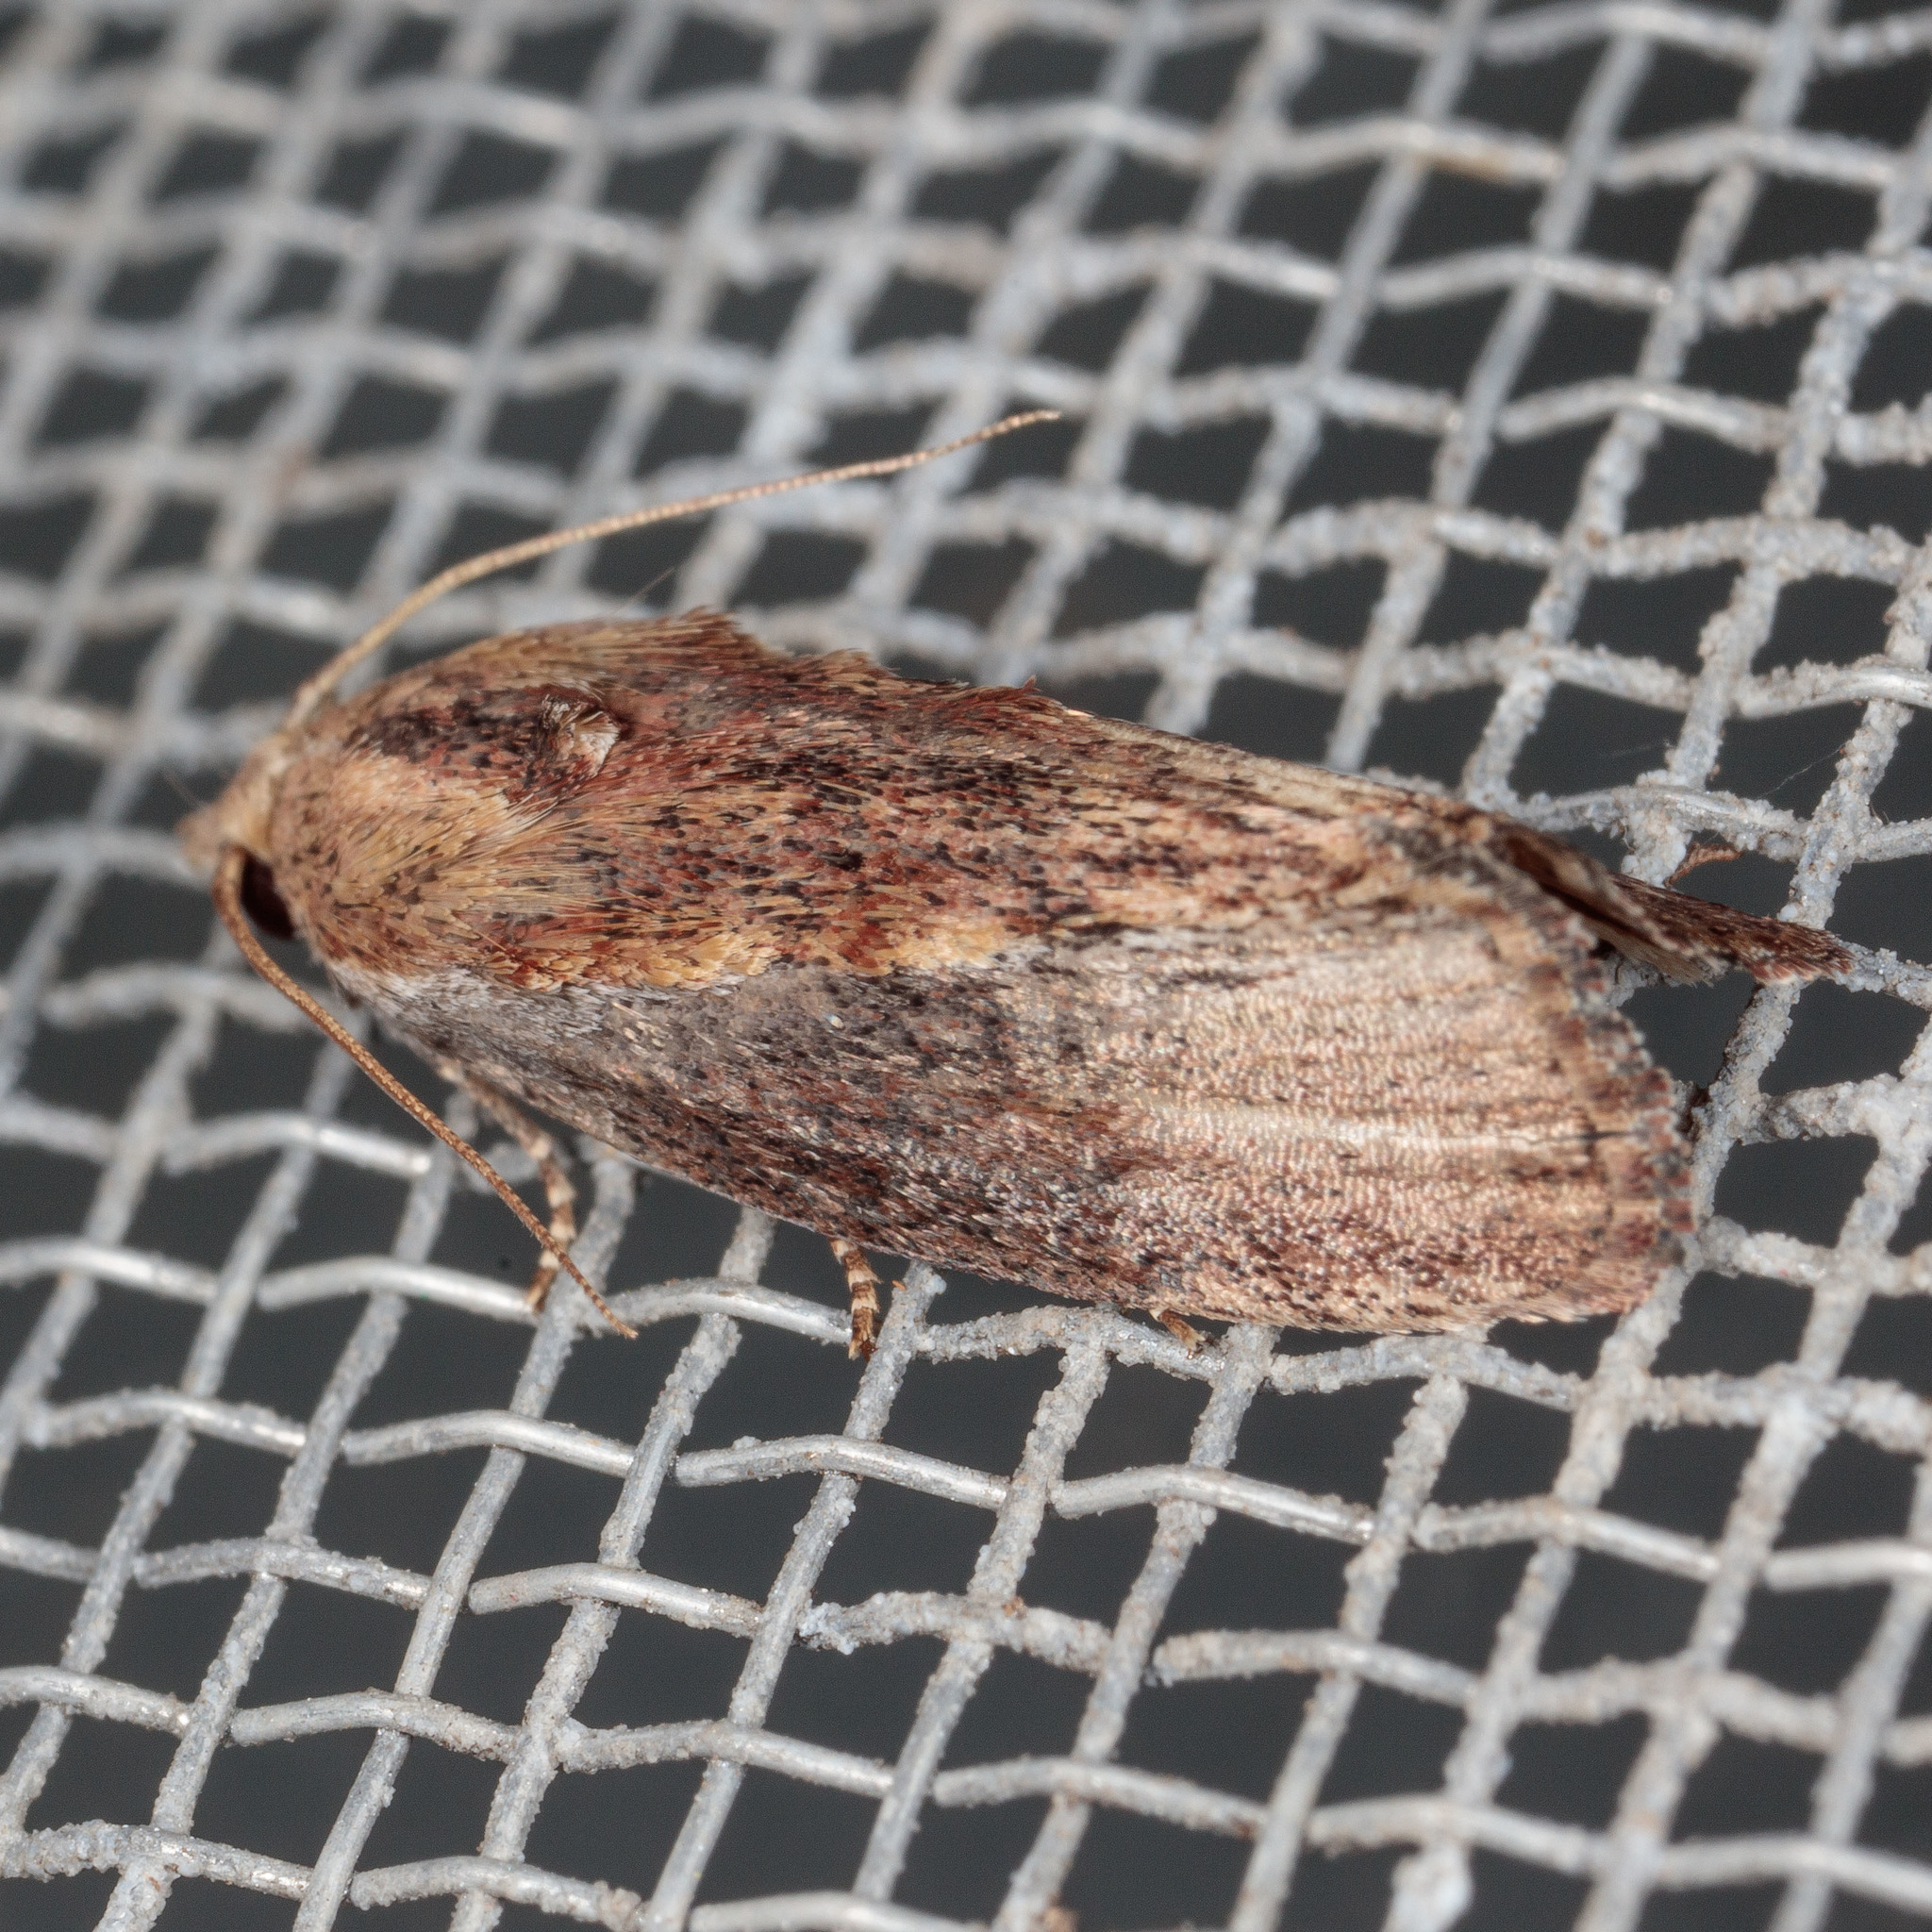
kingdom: Animalia
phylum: Arthropoda
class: Insecta
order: Lepidoptera
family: Pyralidae
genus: Galleria
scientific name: Galleria mellonella
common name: Greater wax moth
